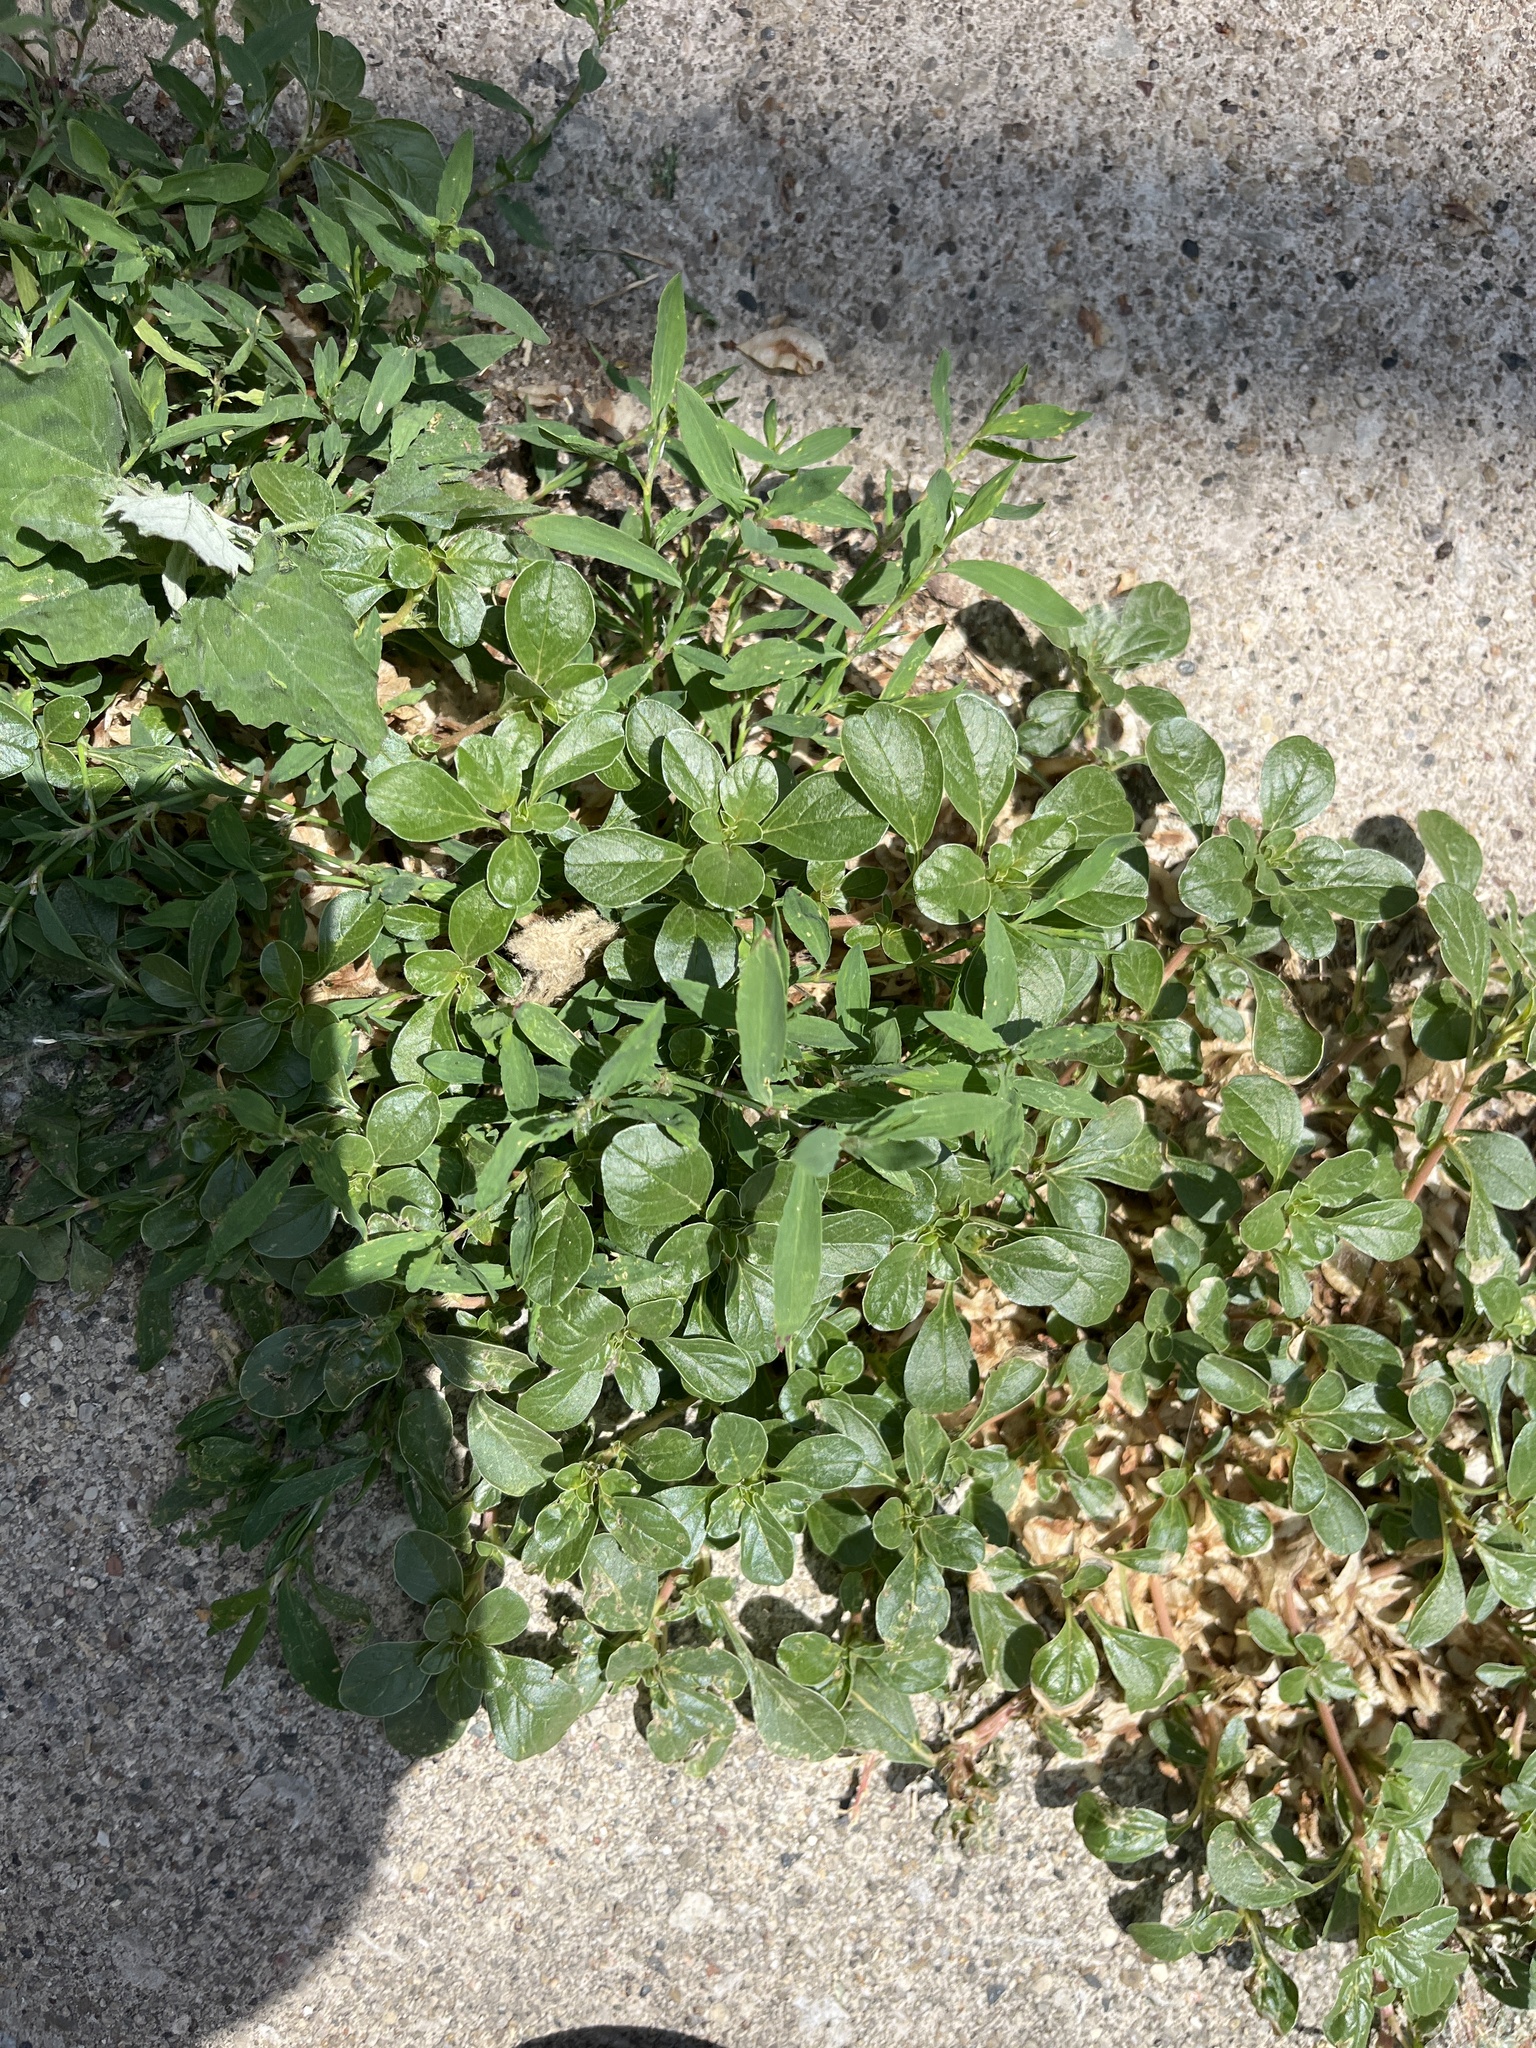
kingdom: Plantae
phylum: Tracheophyta
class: Magnoliopsida
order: Caryophyllales
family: Portulacaceae
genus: Portulaca
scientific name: Portulaca oleracea
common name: Common purslane
